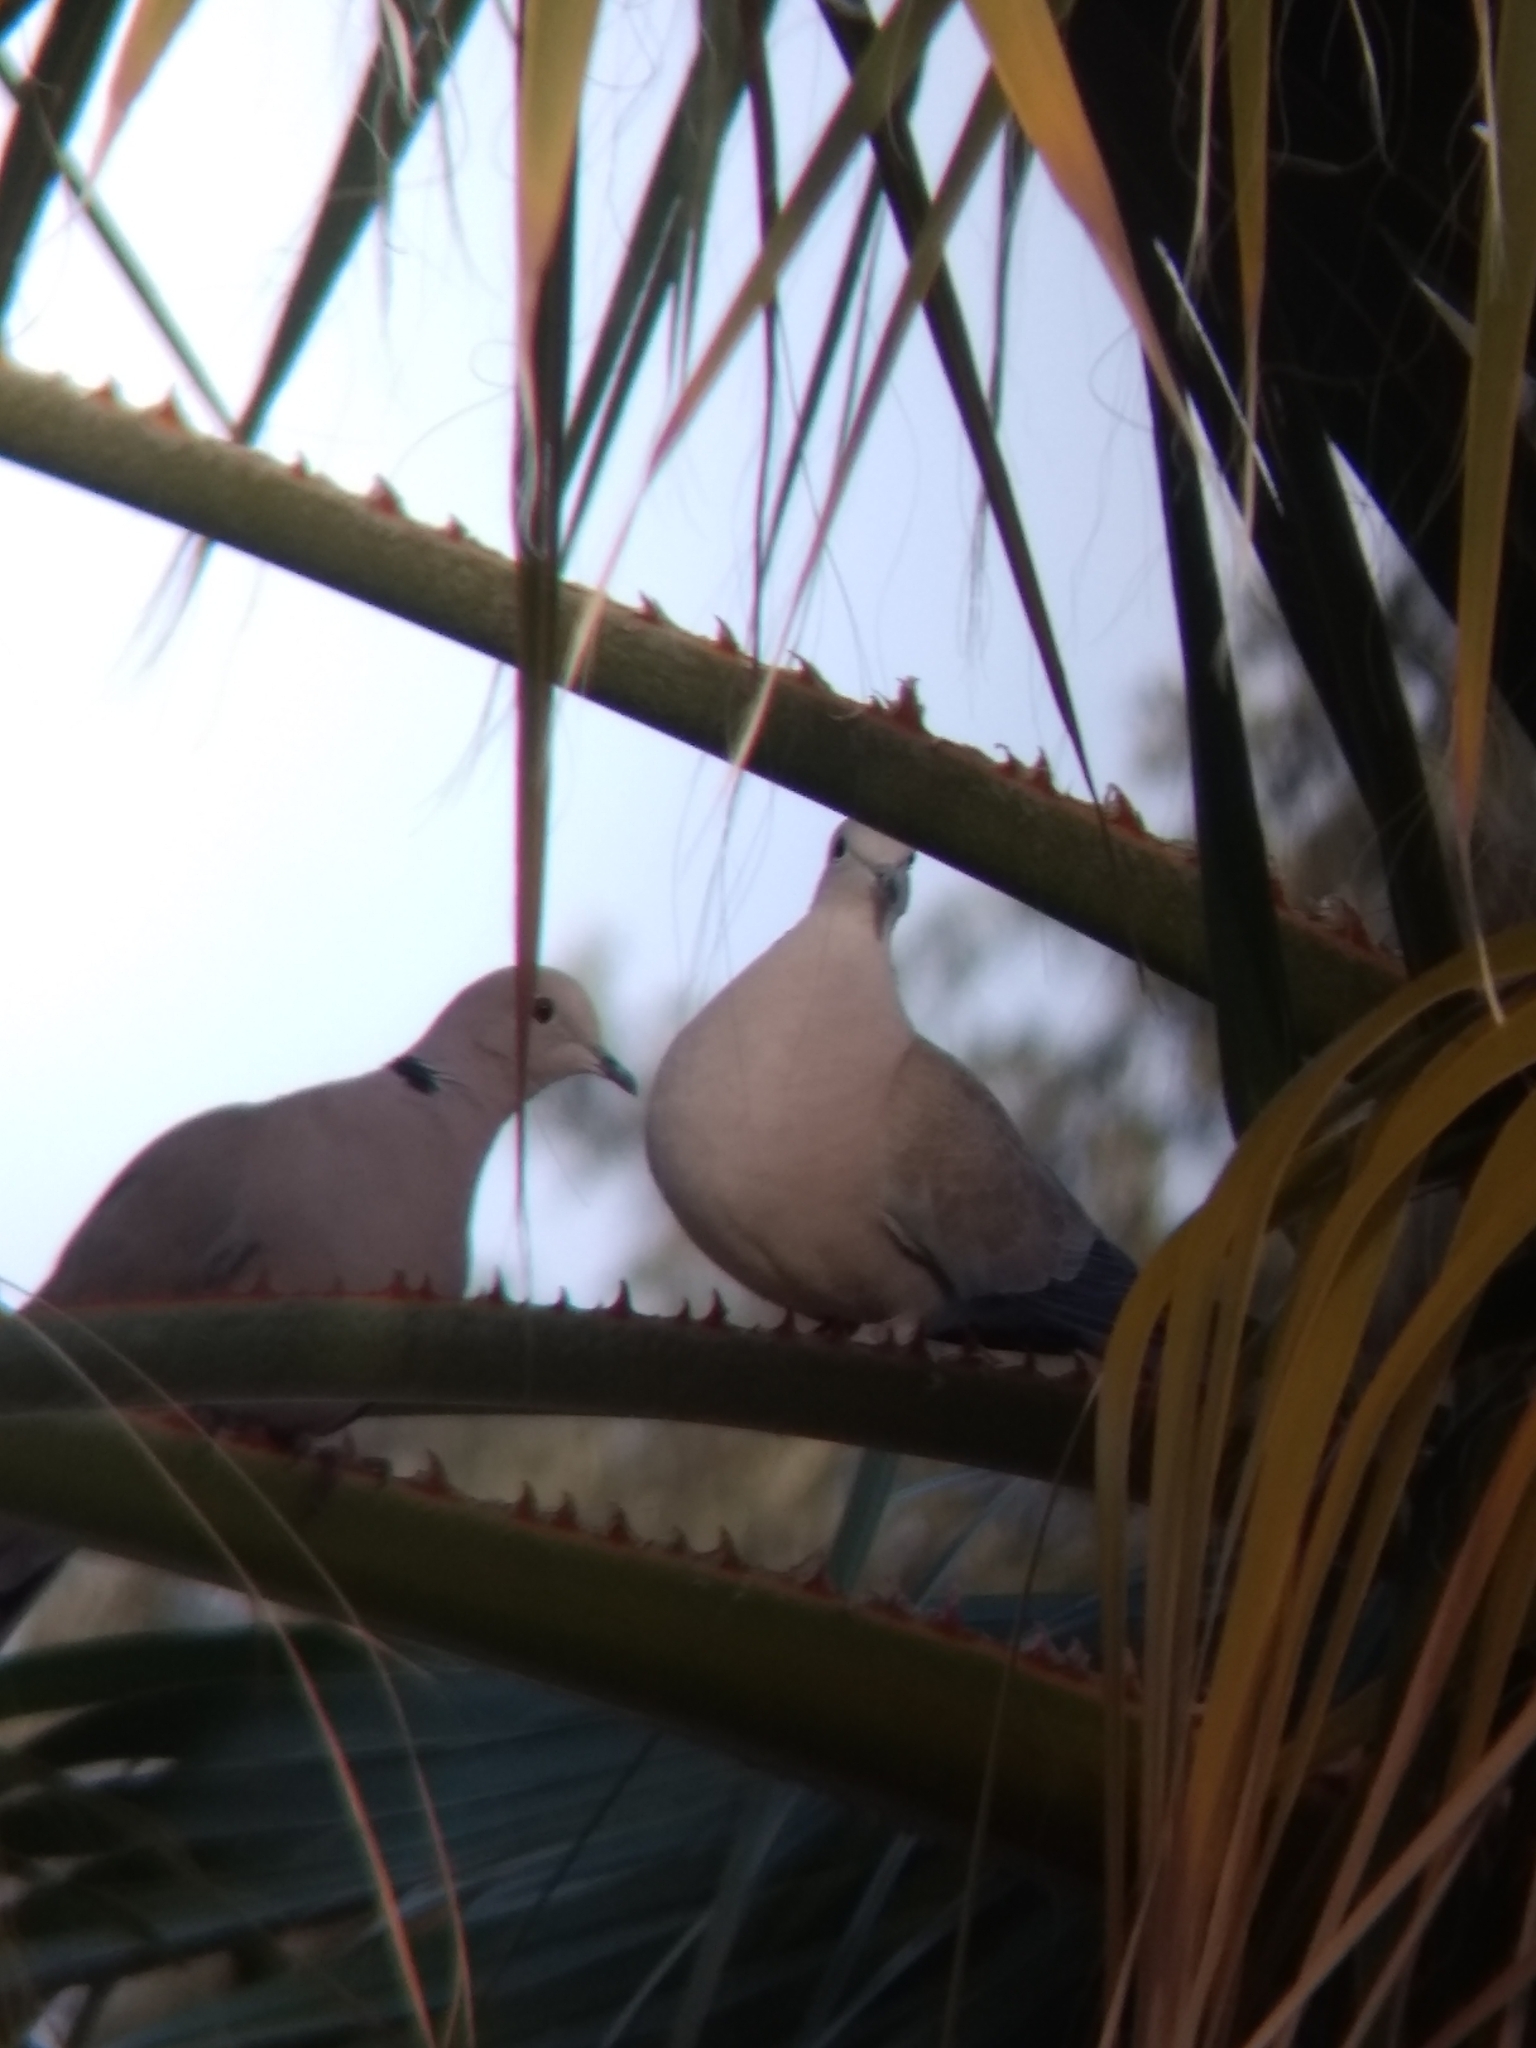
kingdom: Animalia
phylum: Chordata
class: Aves
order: Columbiformes
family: Columbidae
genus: Streptopelia
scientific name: Streptopelia decaocto
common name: Eurasian collared dove
